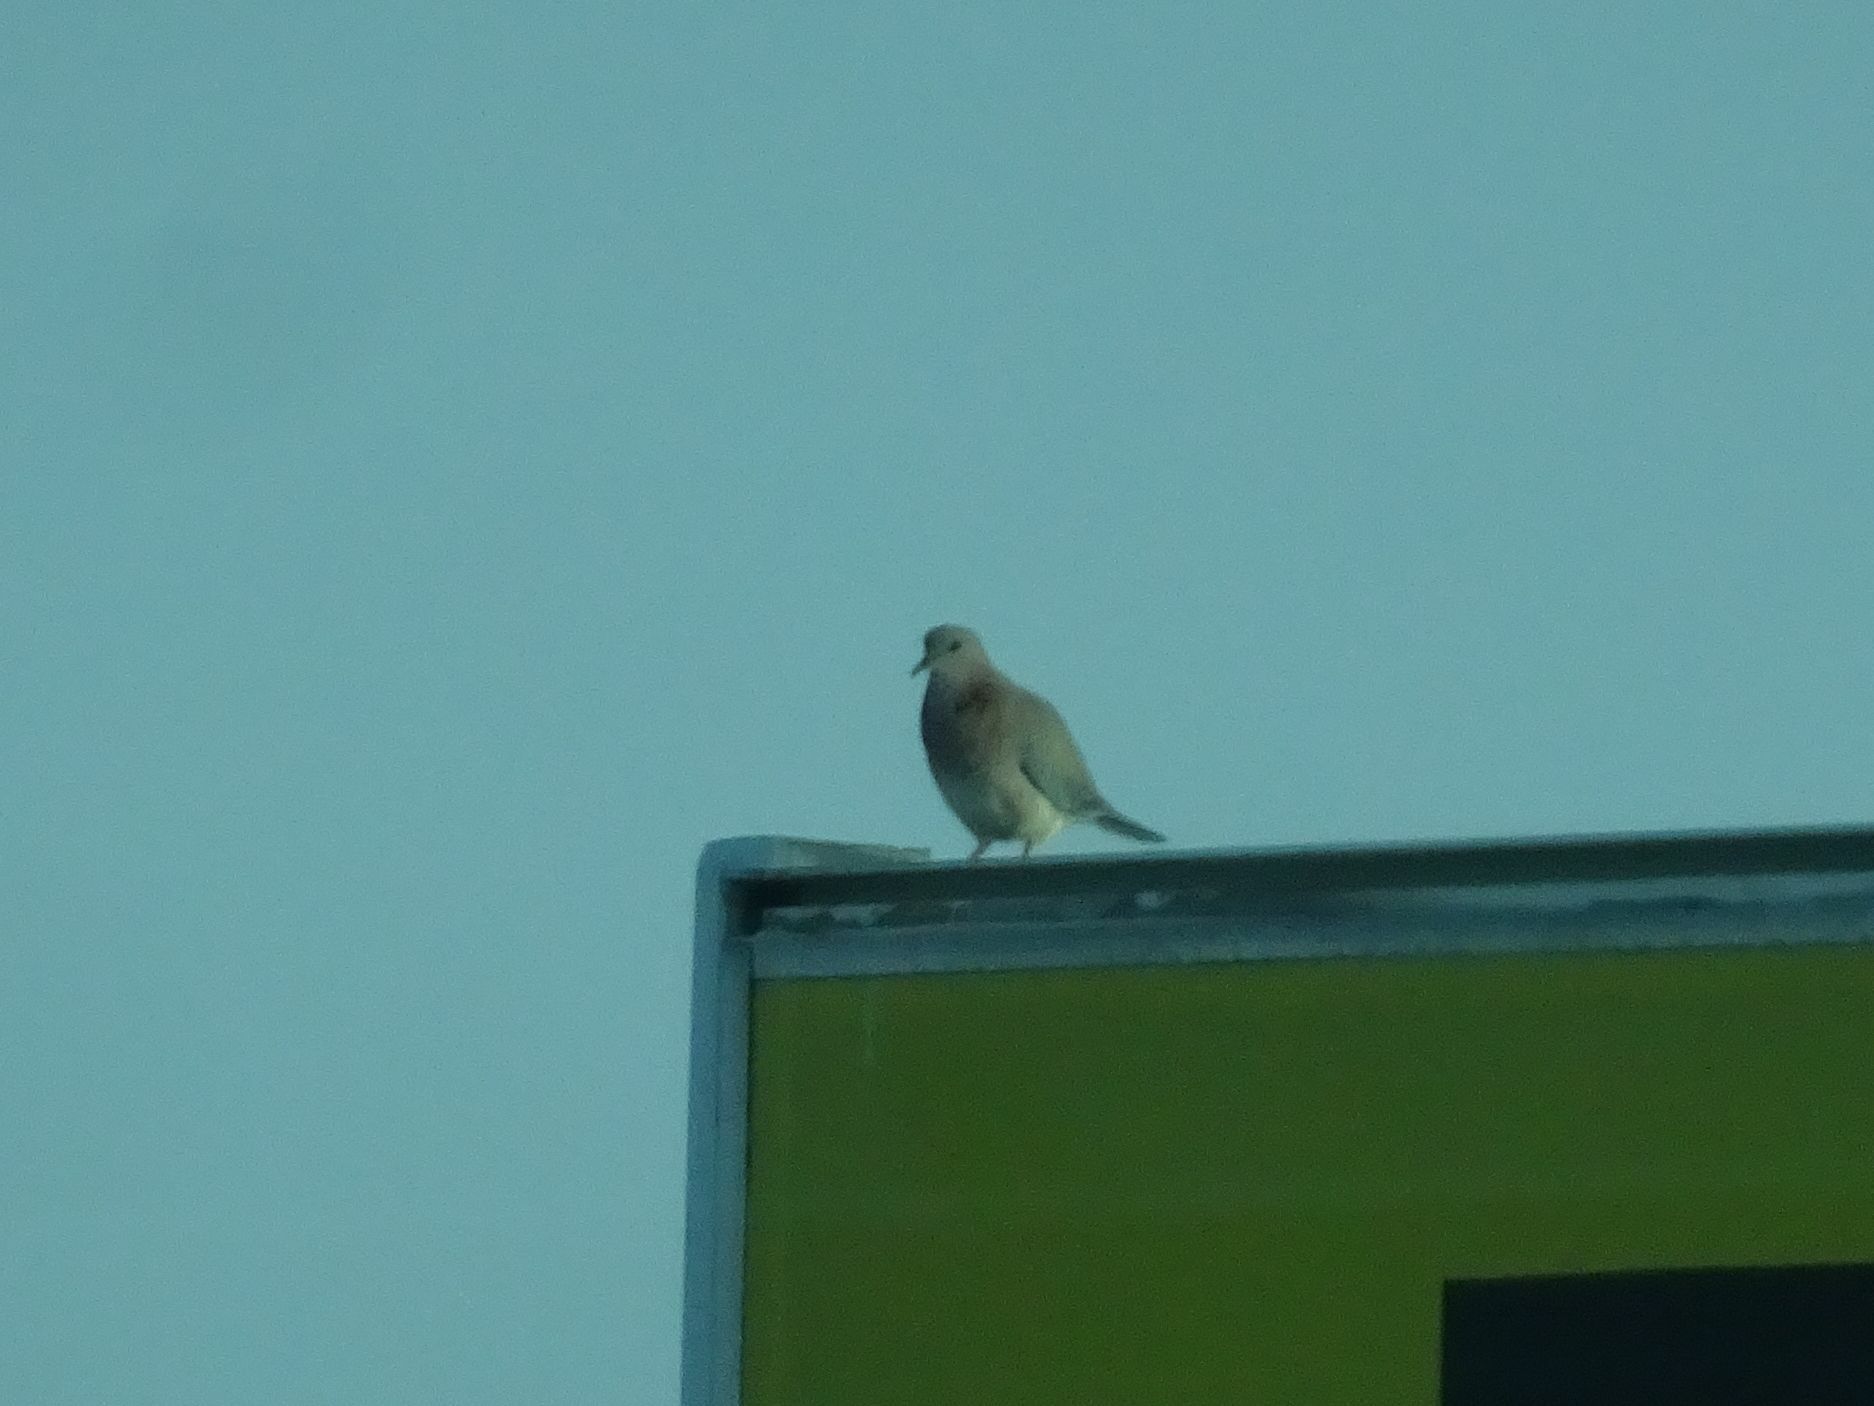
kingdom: Animalia
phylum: Chordata
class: Aves
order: Columbiformes
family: Columbidae
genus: Spilopelia
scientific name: Spilopelia senegalensis
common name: Laughing dove
